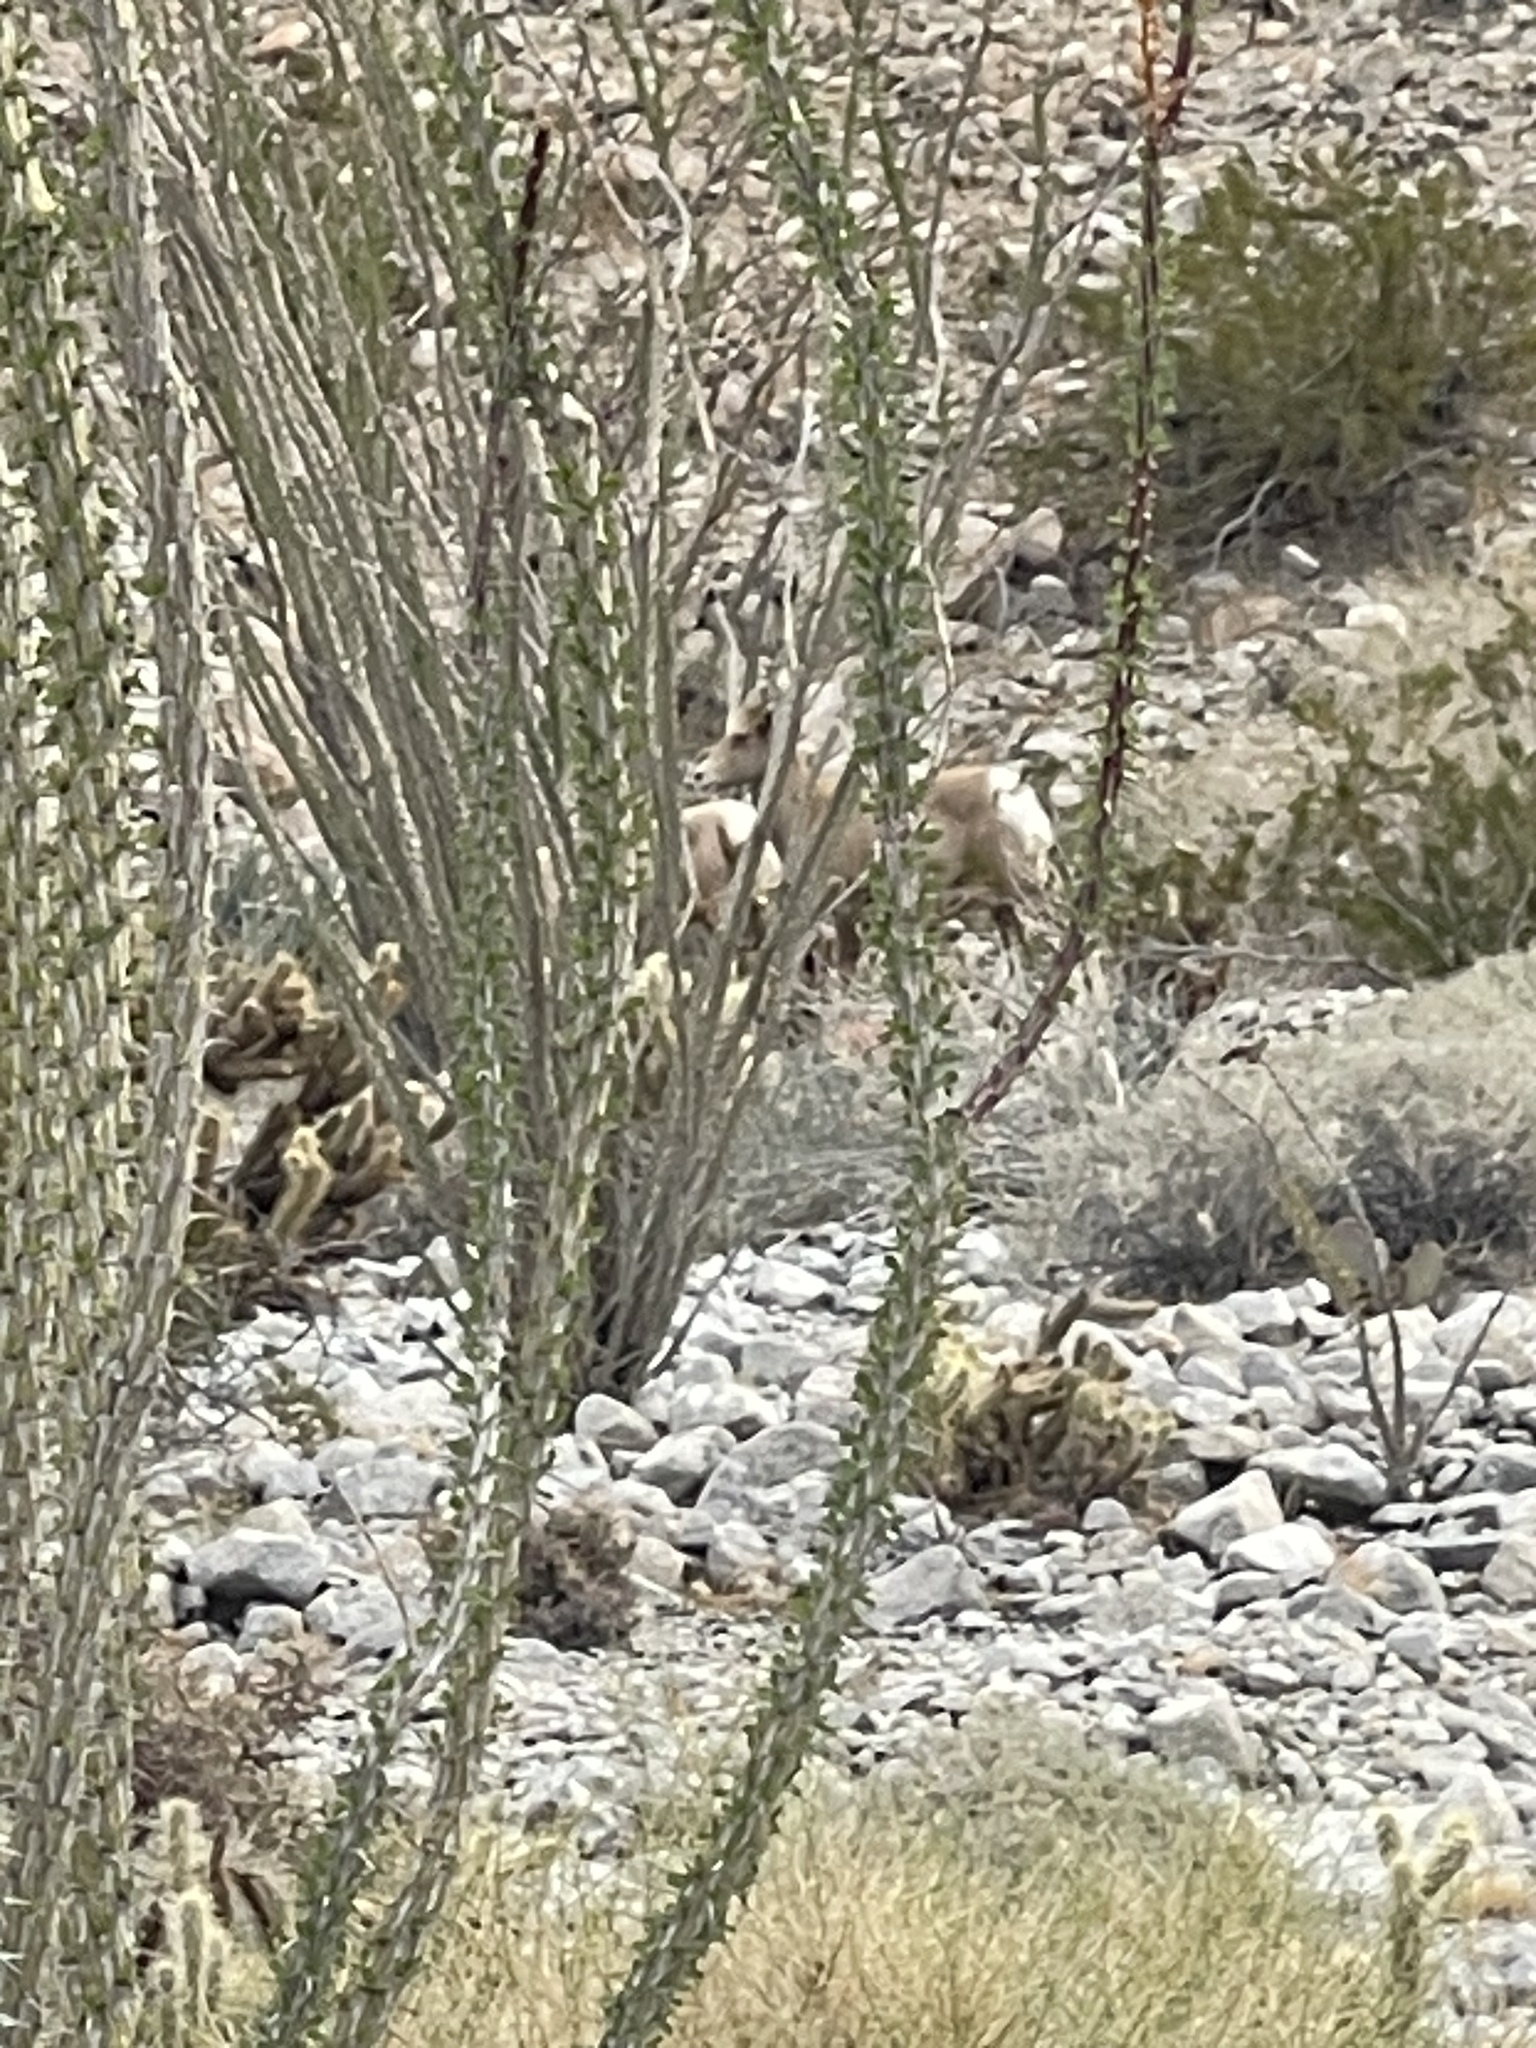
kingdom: Animalia
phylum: Chordata
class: Mammalia
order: Artiodactyla
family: Bovidae
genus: Ovis
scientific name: Ovis canadensis
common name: Bighorn sheep
